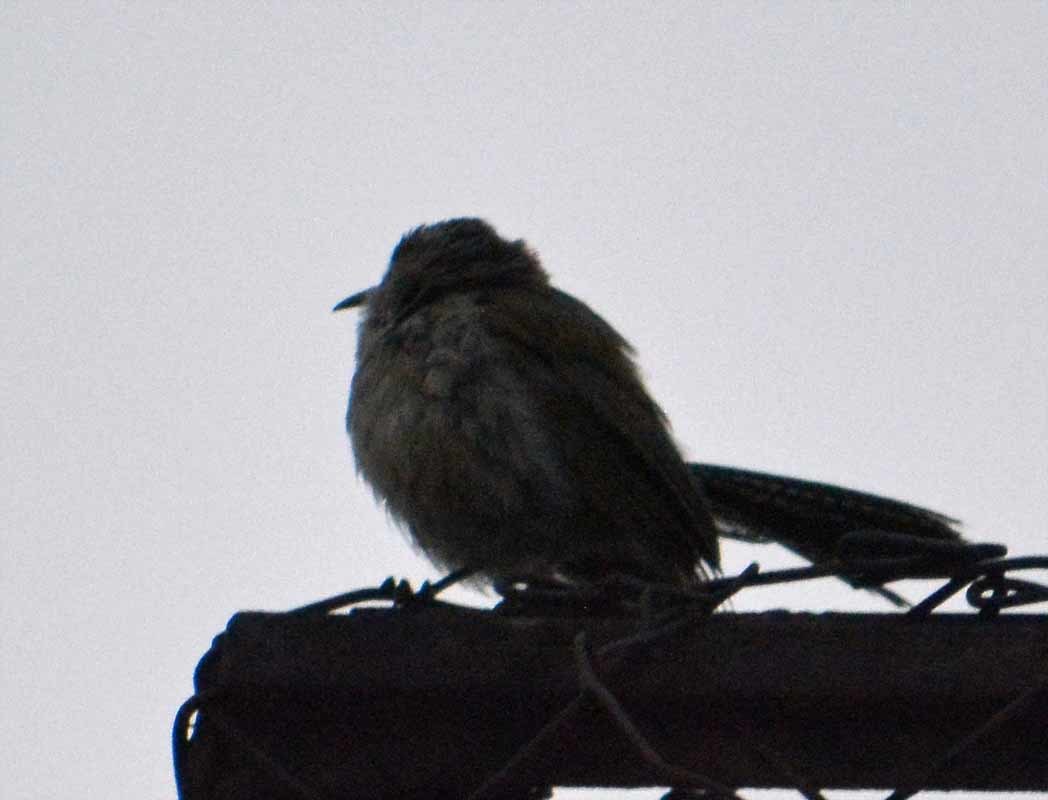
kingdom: Animalia
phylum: Chordata
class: Aves
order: Passeriformes
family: Troglodytidae
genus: Thryomanes
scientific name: Thryomanes bewickii
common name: Bewick's wren
